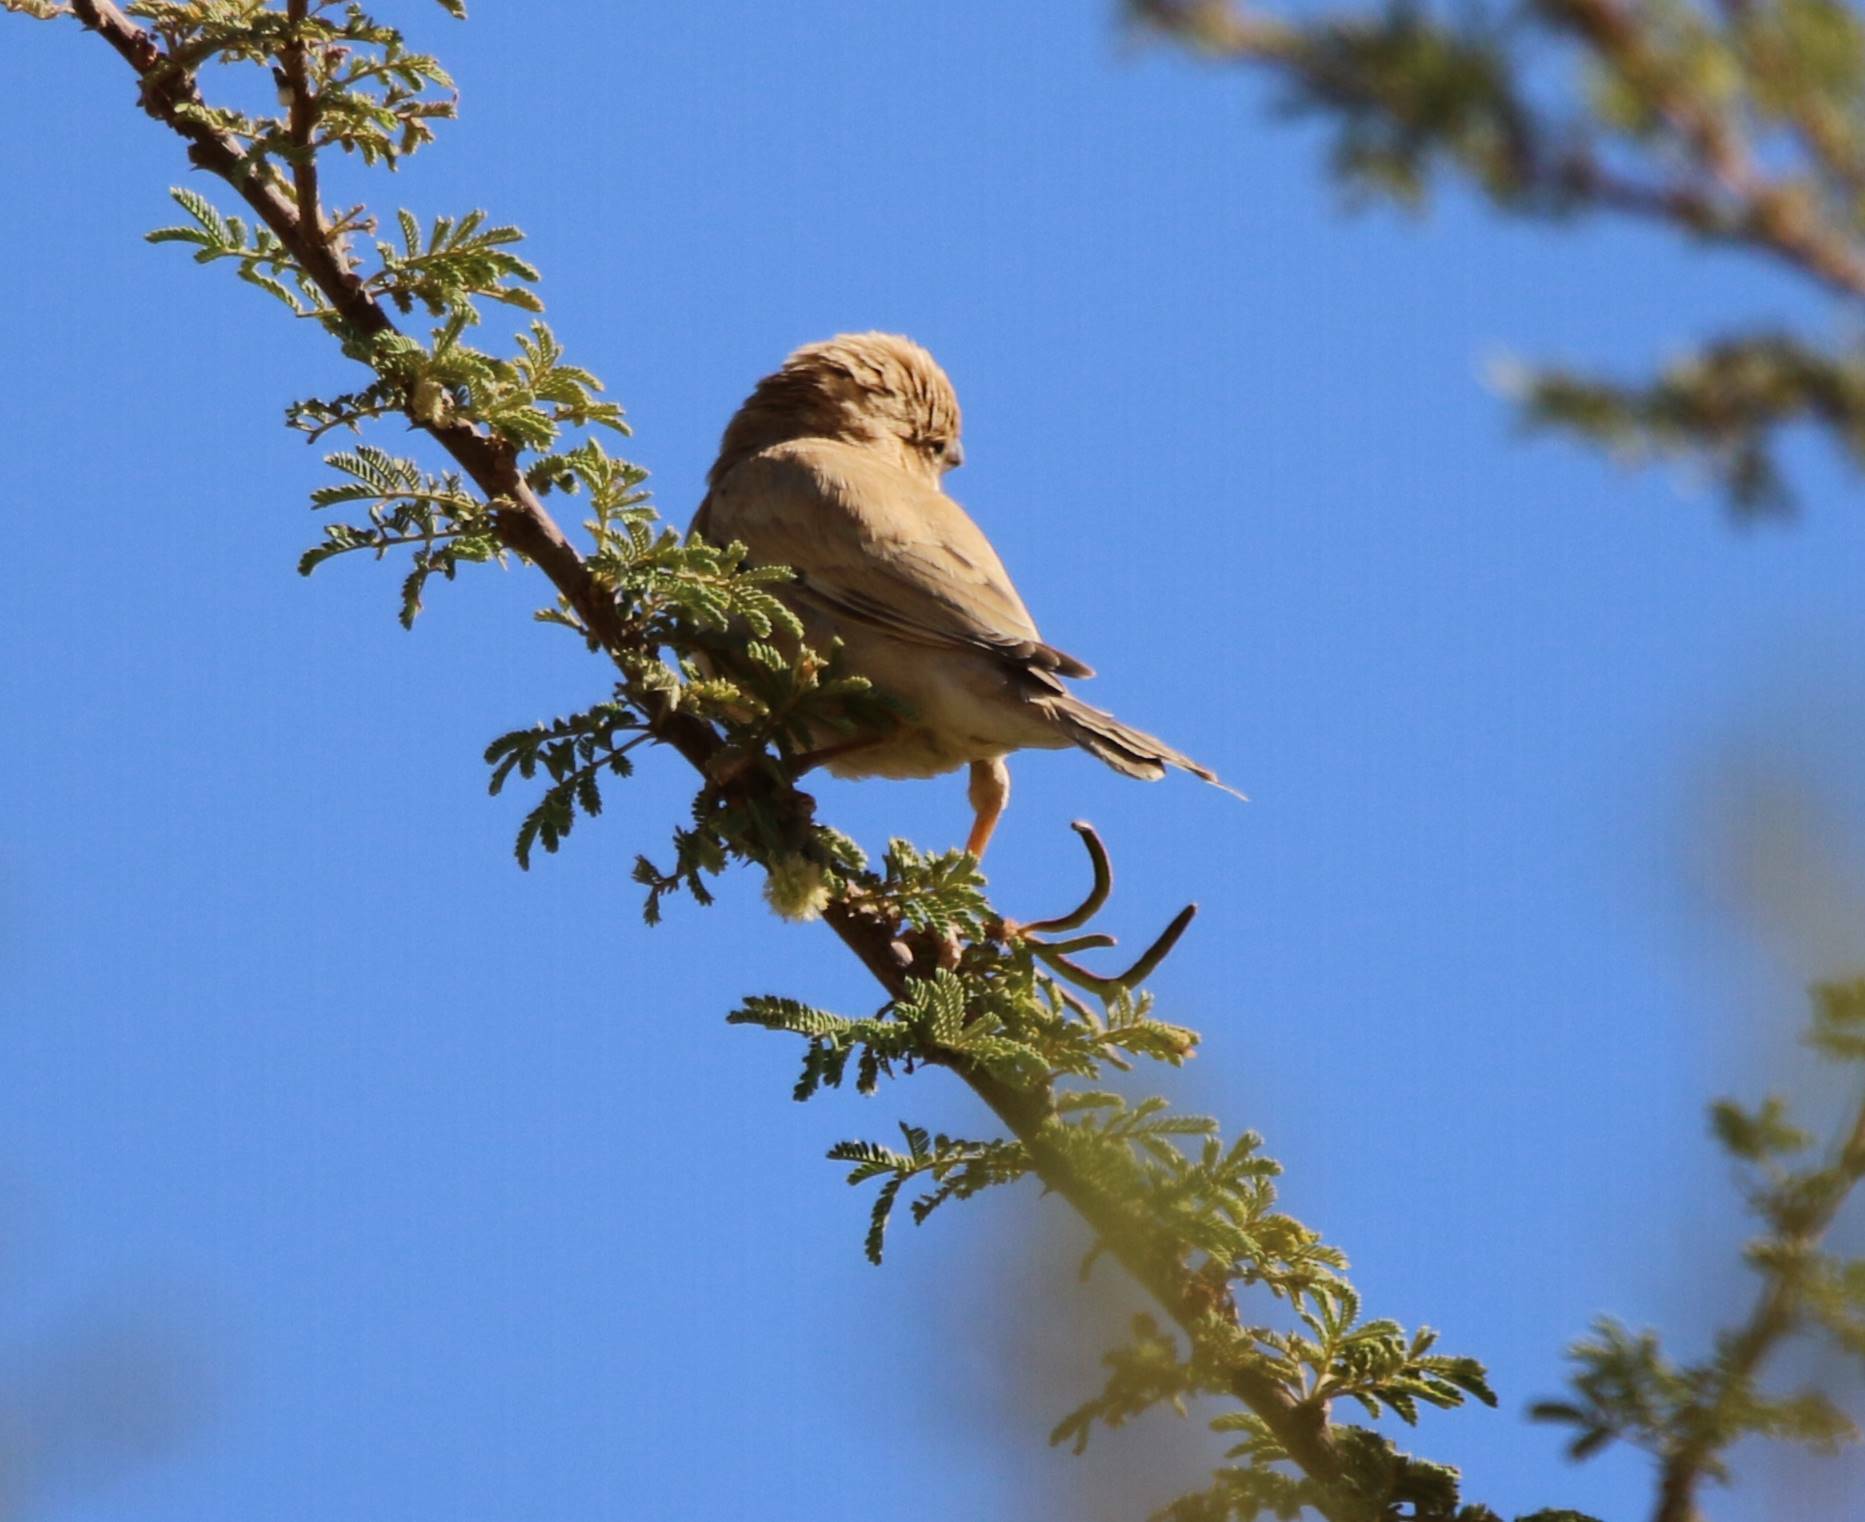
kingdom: Animalia
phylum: Chordata
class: Aves
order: Passeriformes
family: Passeridae
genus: Passer
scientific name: Passer simplex
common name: Desert sparrow
